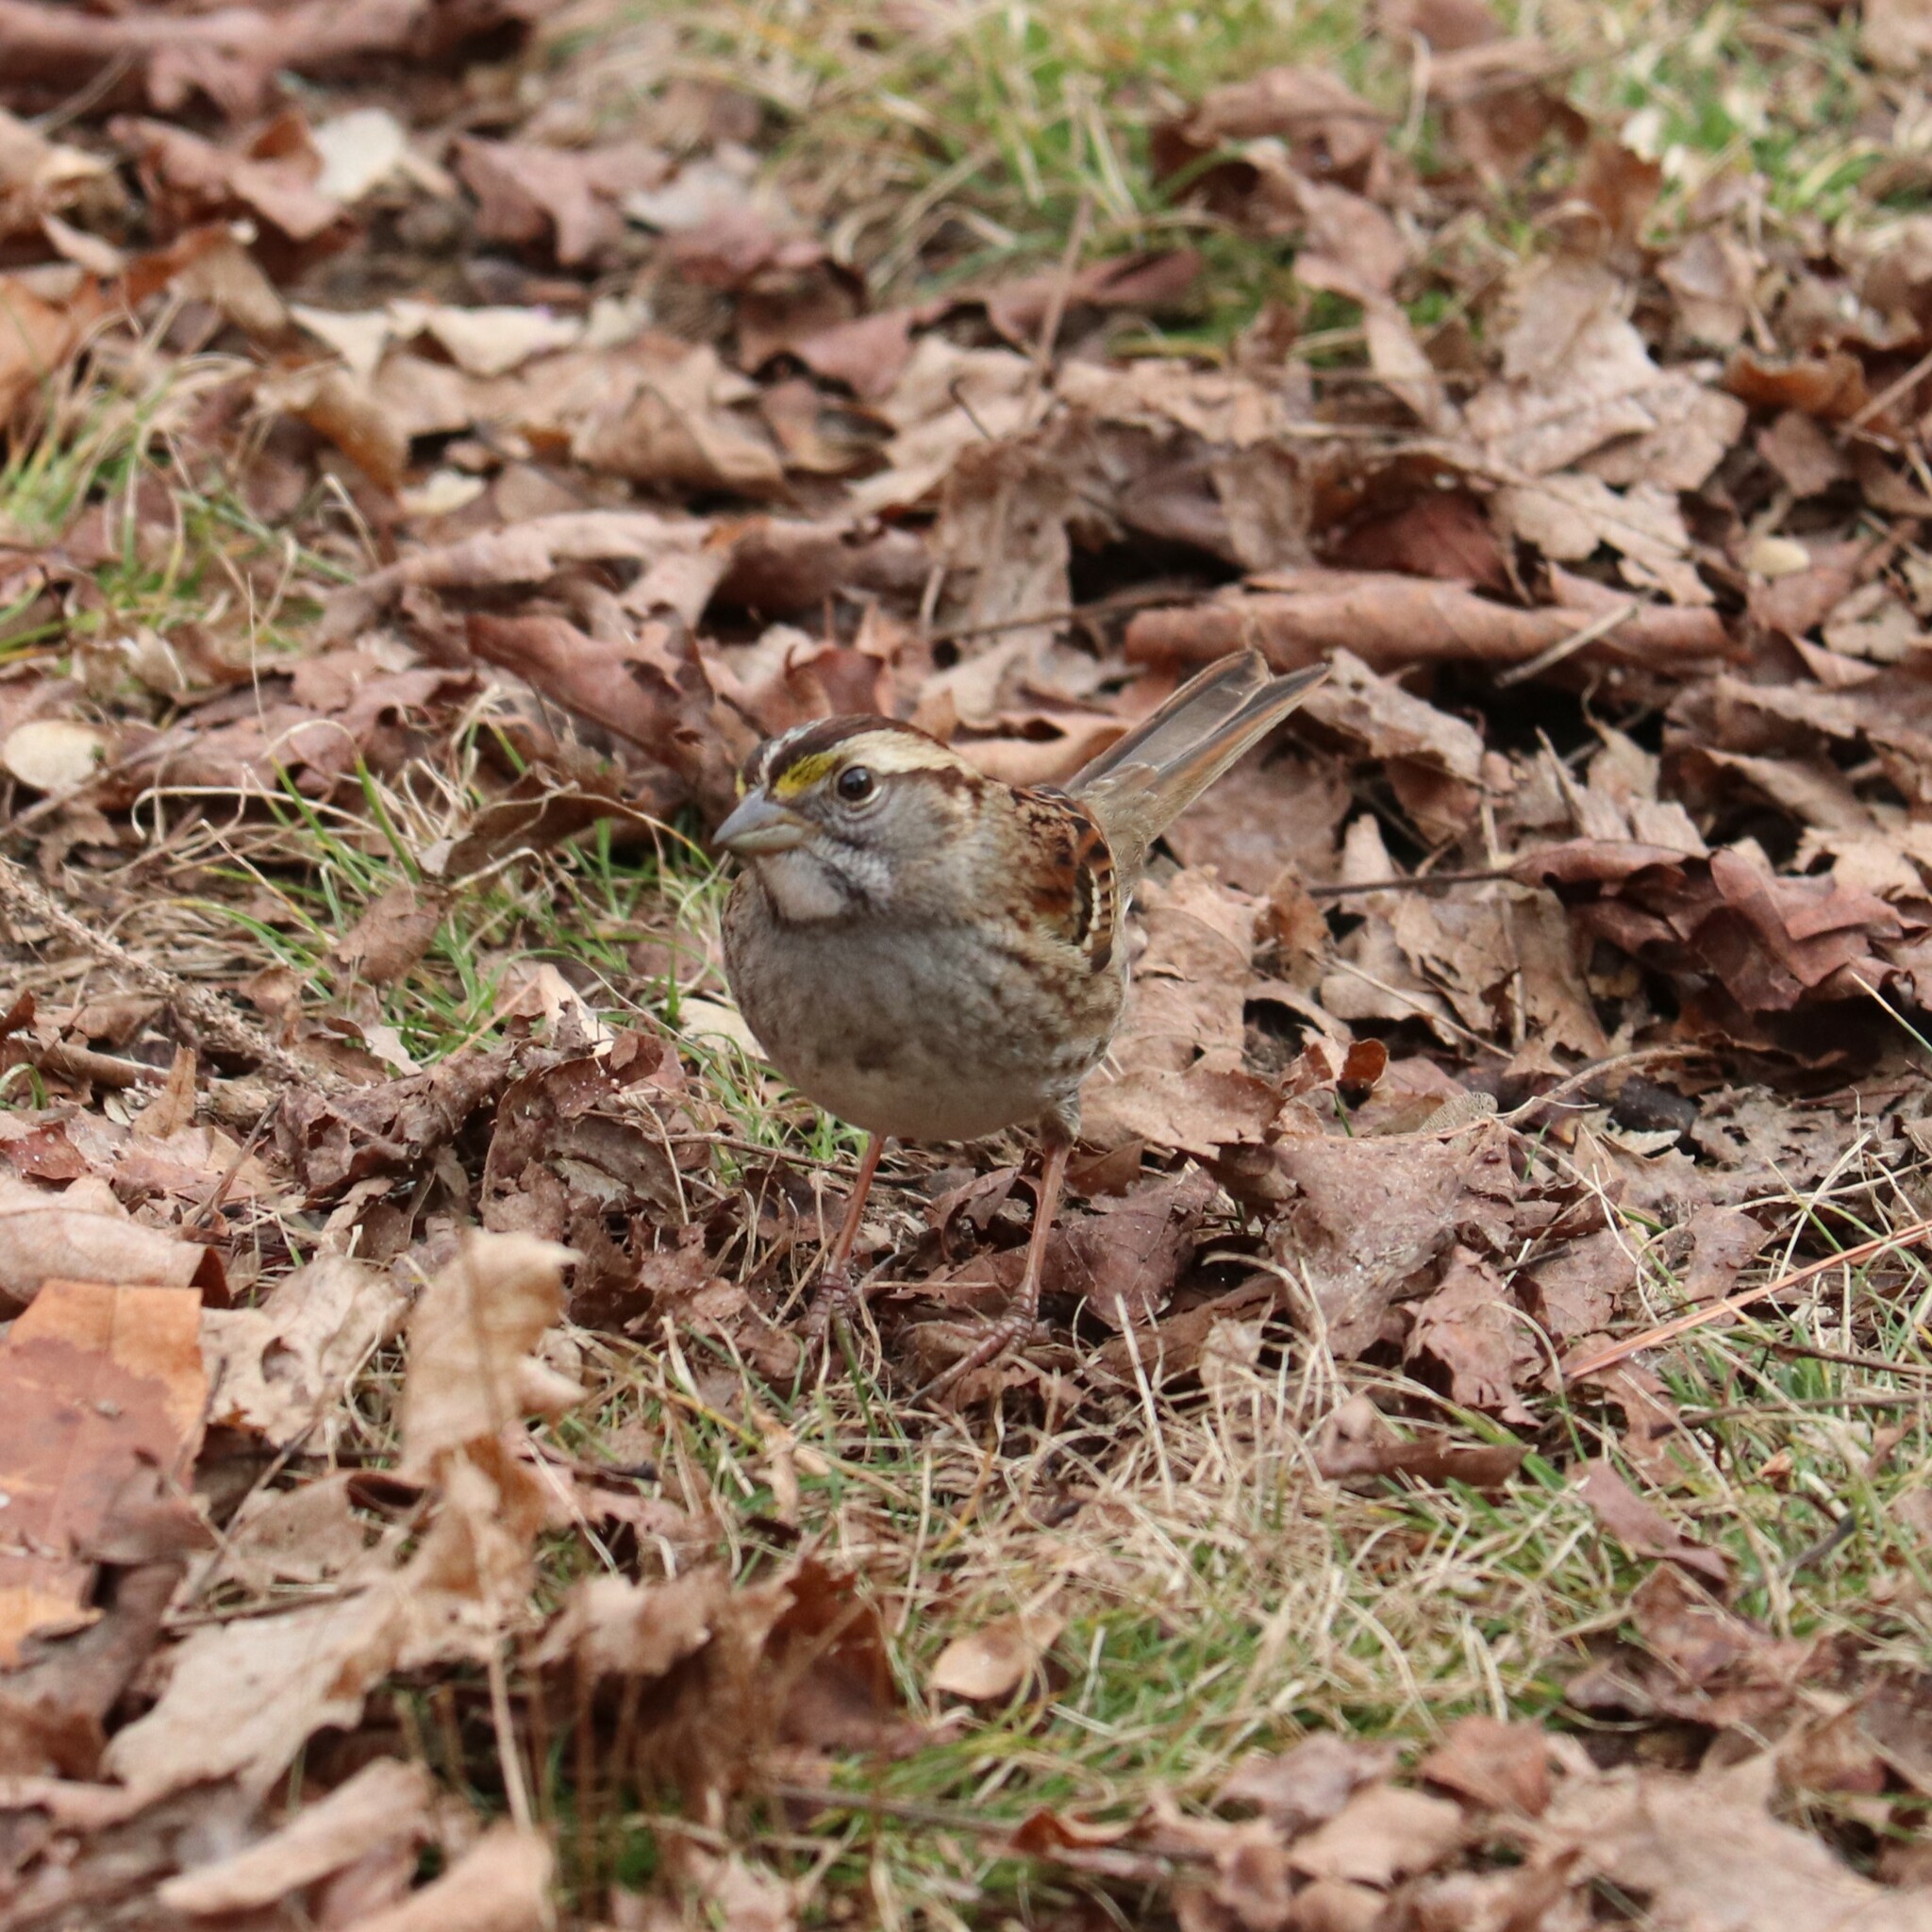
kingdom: Animalia
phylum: Chordata
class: Aves
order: Passeriformes
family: Passerellidae
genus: Zonotrichia
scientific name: Zonotrichia albicollis
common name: White-throated sparrow
